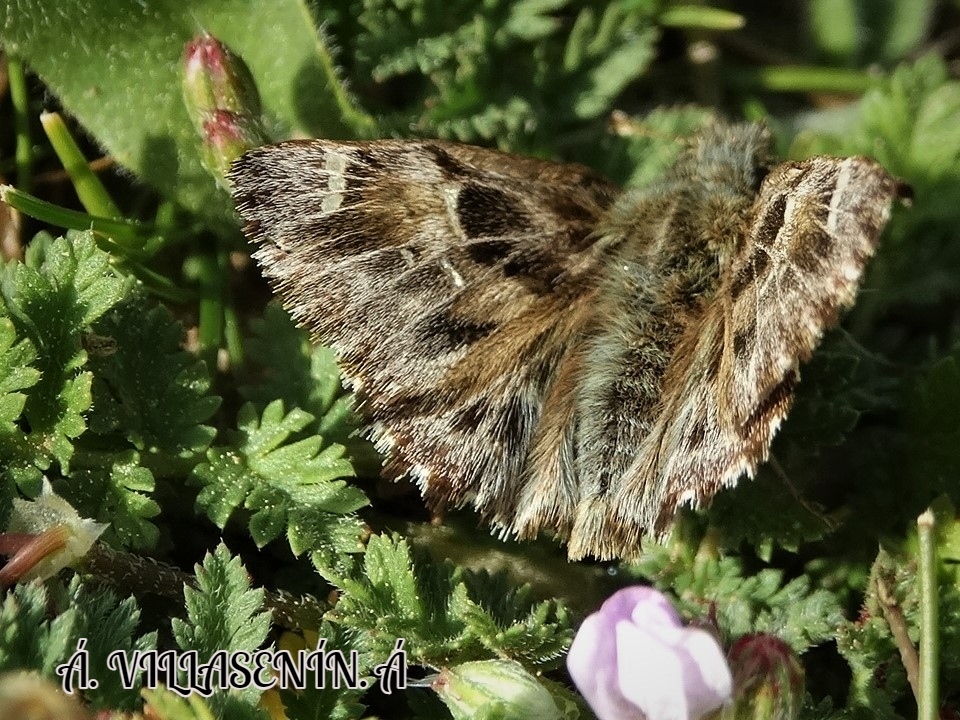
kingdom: Animalia
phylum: Arthropoda
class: Insecta
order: Lepidoptera
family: Hesperiidae
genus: Carcharodus
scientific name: Carcharodus alceae
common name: Mallow skipper
